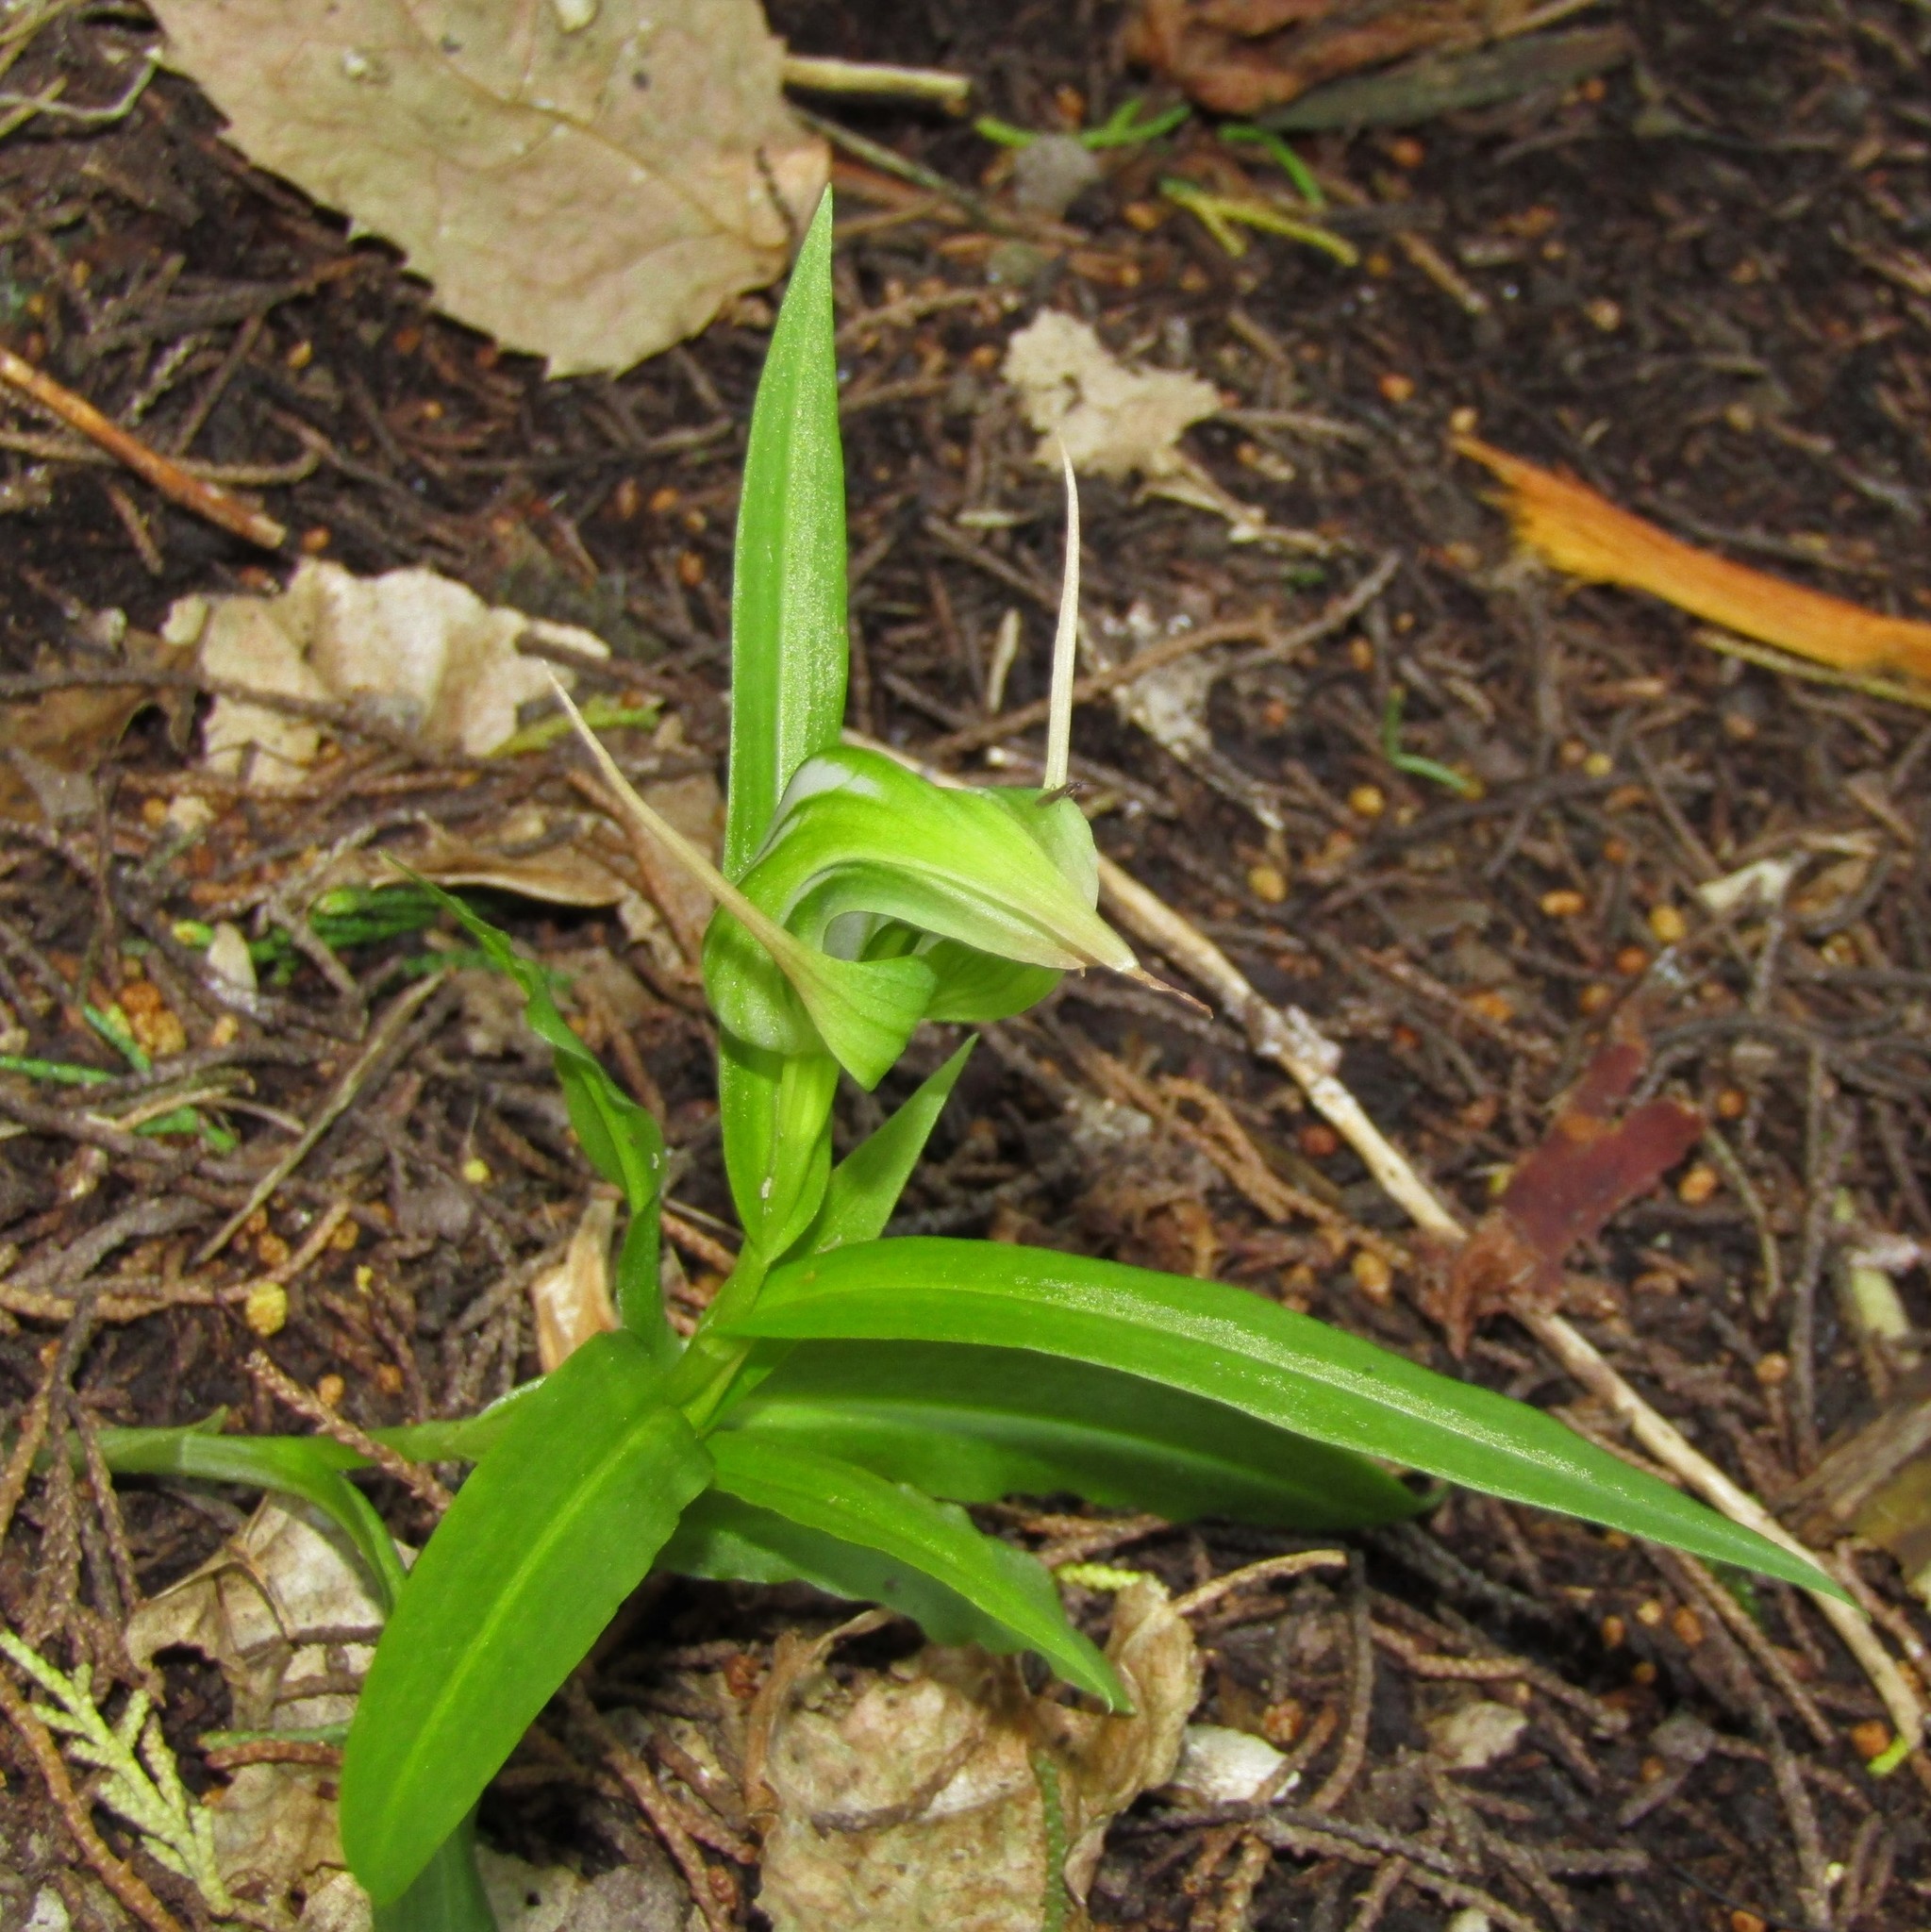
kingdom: Plantae
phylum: Tracheophyta
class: Liliopsida
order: Asparagales
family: Orchidaceae
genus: Pterostylis
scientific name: Pterostylis banksii
